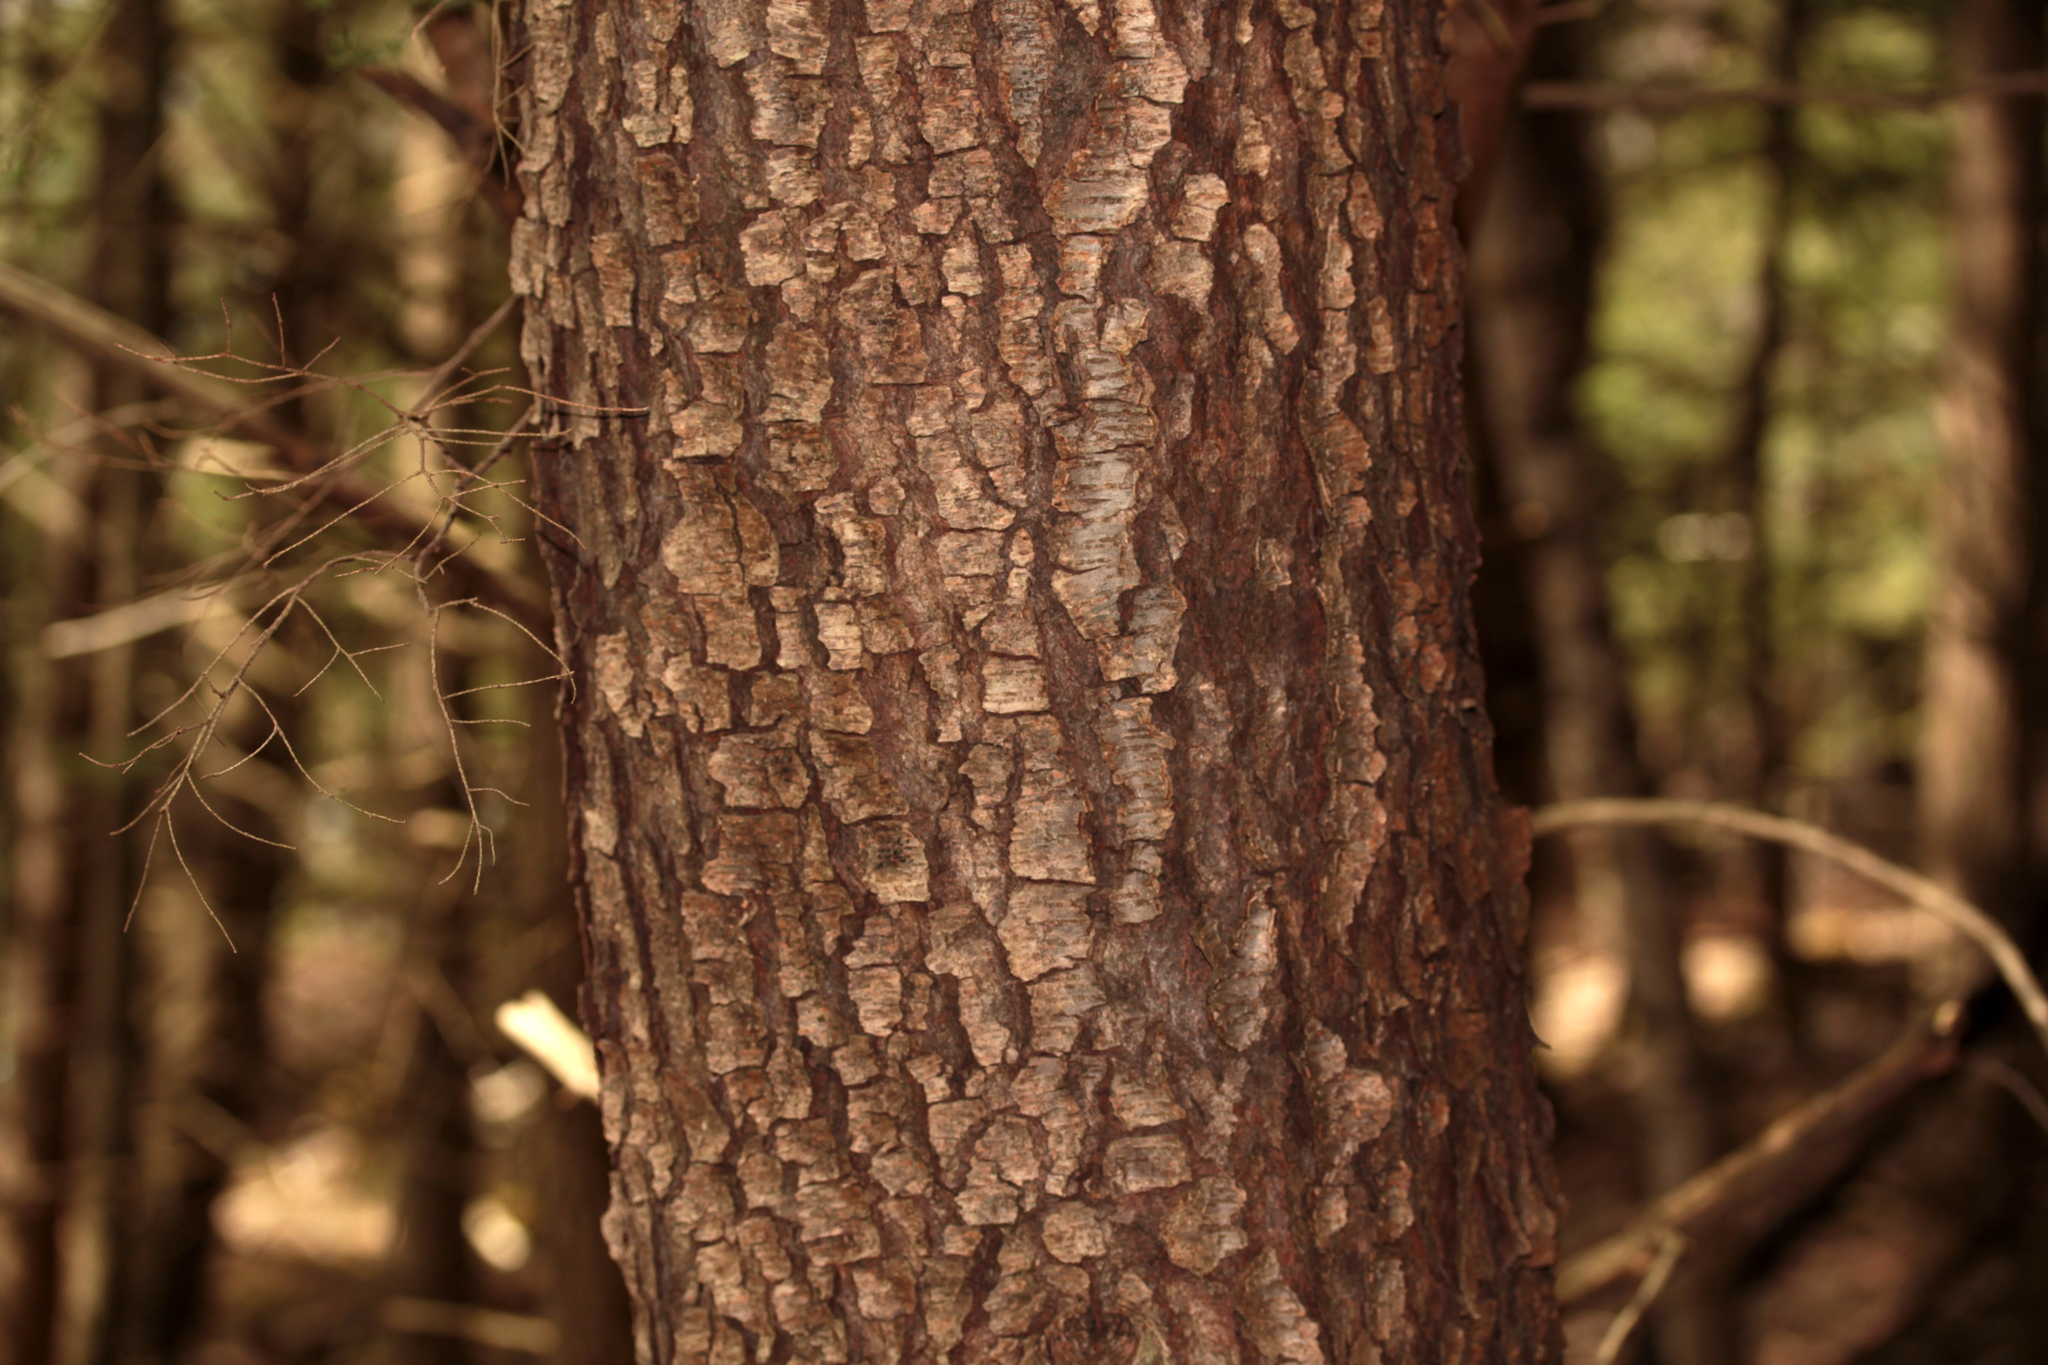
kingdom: Plantae
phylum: Tracheophyta
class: Magnoliopsida
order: Rosales
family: Rosaceae
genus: Prunus
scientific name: Prunus serotina
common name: Black cherry
